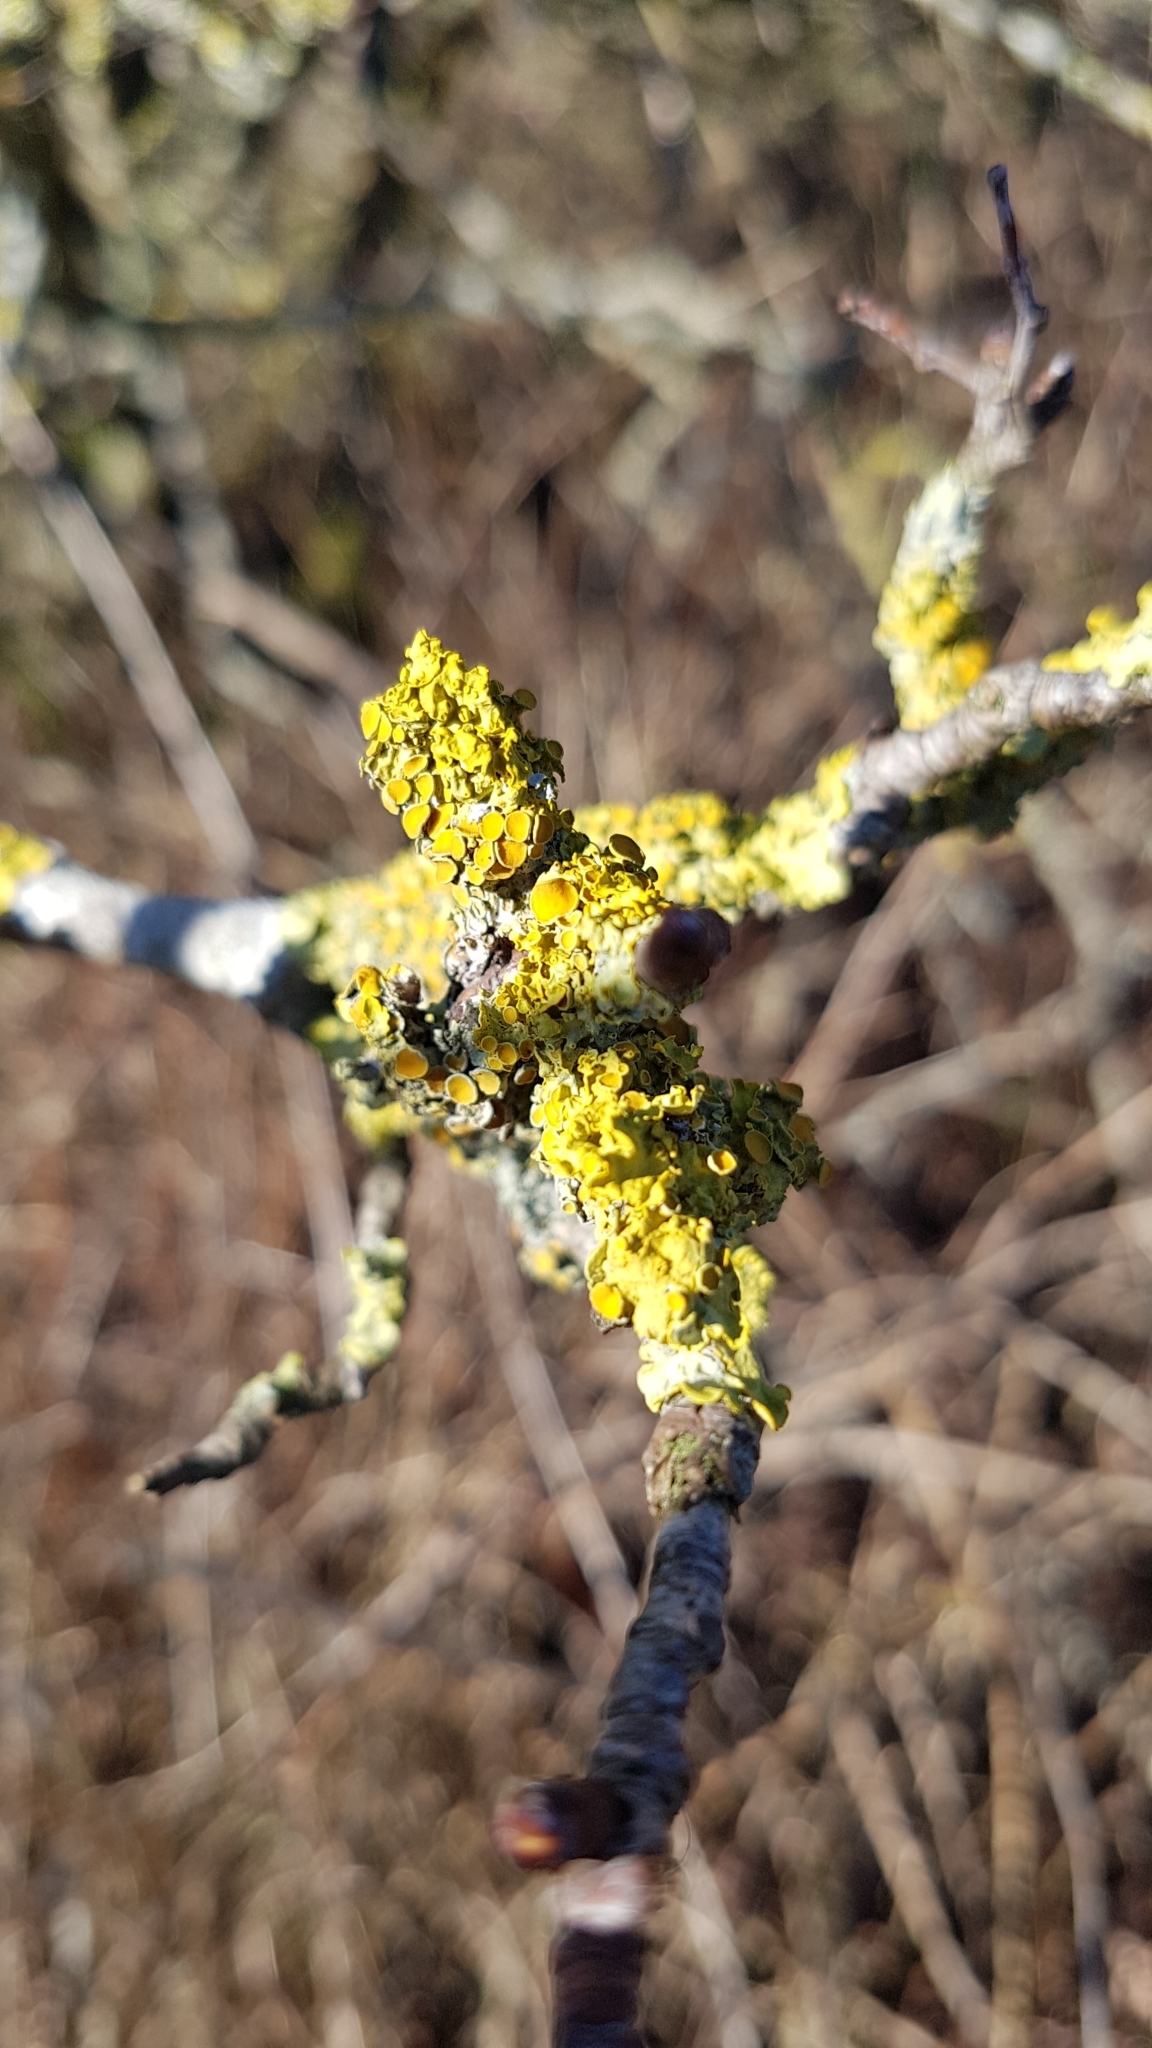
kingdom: Fungi
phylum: Ascomycota
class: Lecanoromycetes
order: Teloschistales
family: Teloschistaceae
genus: Xanthoria
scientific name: Xanthoria parietina
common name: Common orange lichen
